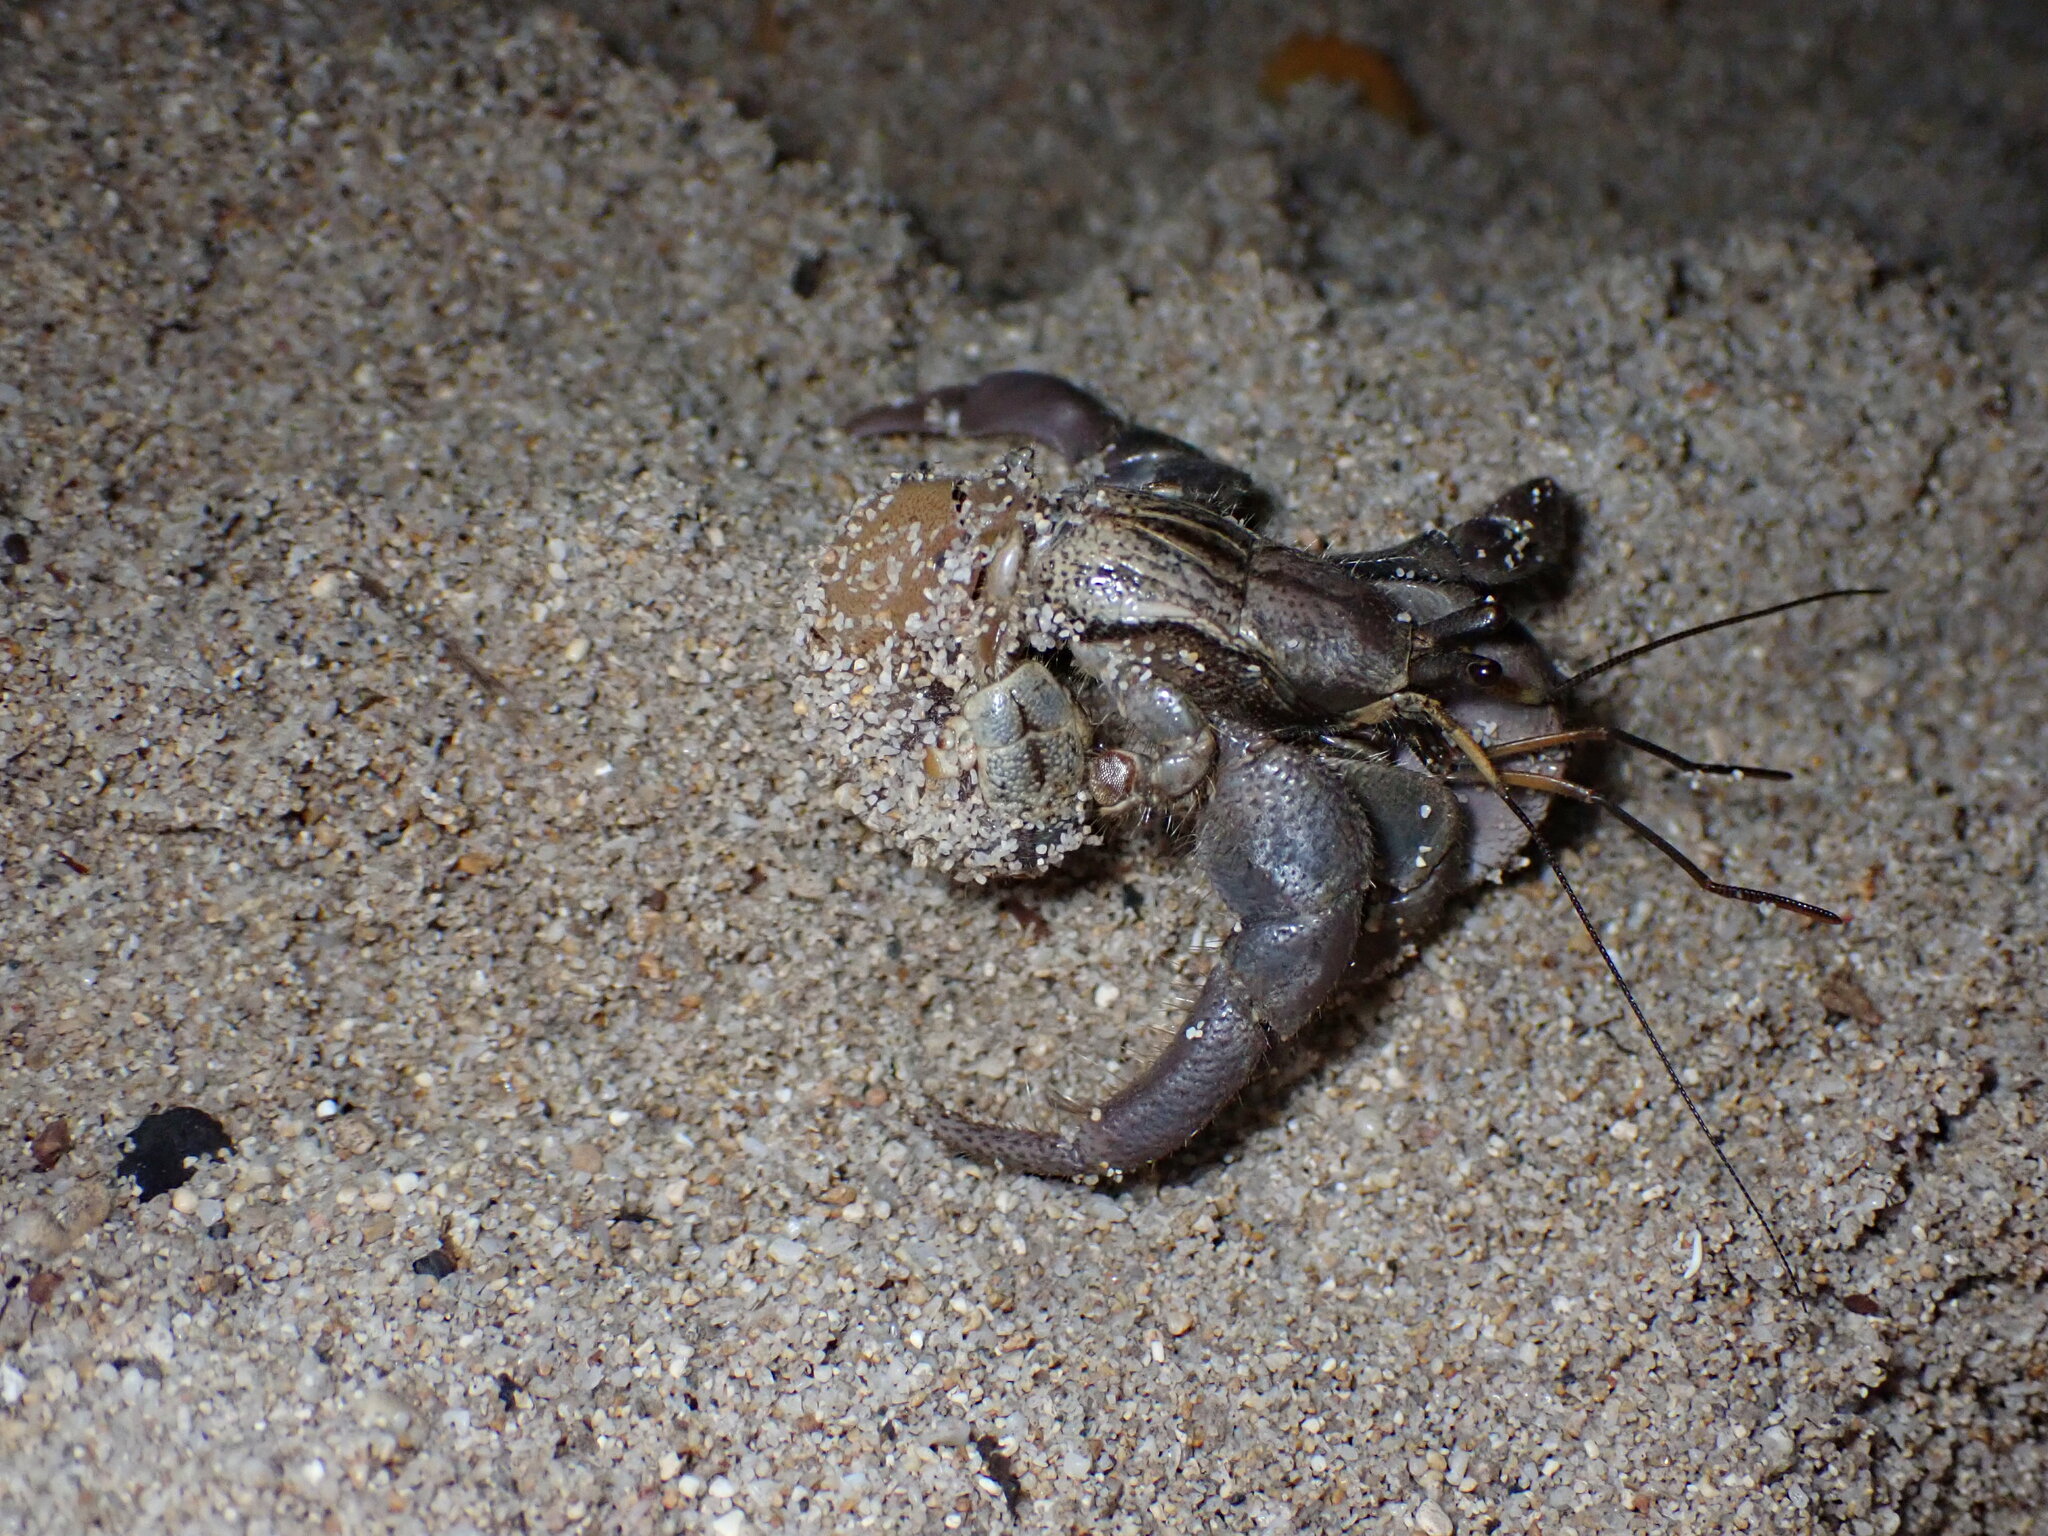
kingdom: Animalia
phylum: Arthropoda
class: Malacostraca
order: Decapoda
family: Coenobitidae
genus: Coenobita
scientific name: Coenobita brevimanus
